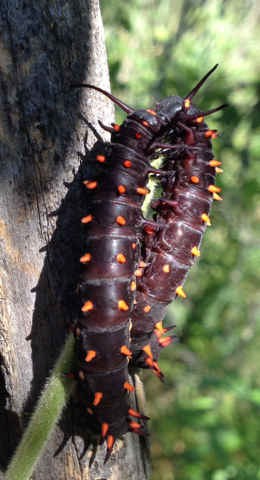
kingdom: Animalia
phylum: Arthropoda
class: Insecta
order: Lepidoptera
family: Papilionidae
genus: Battus
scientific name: Battus philenor
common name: Pipevine swallowtail
